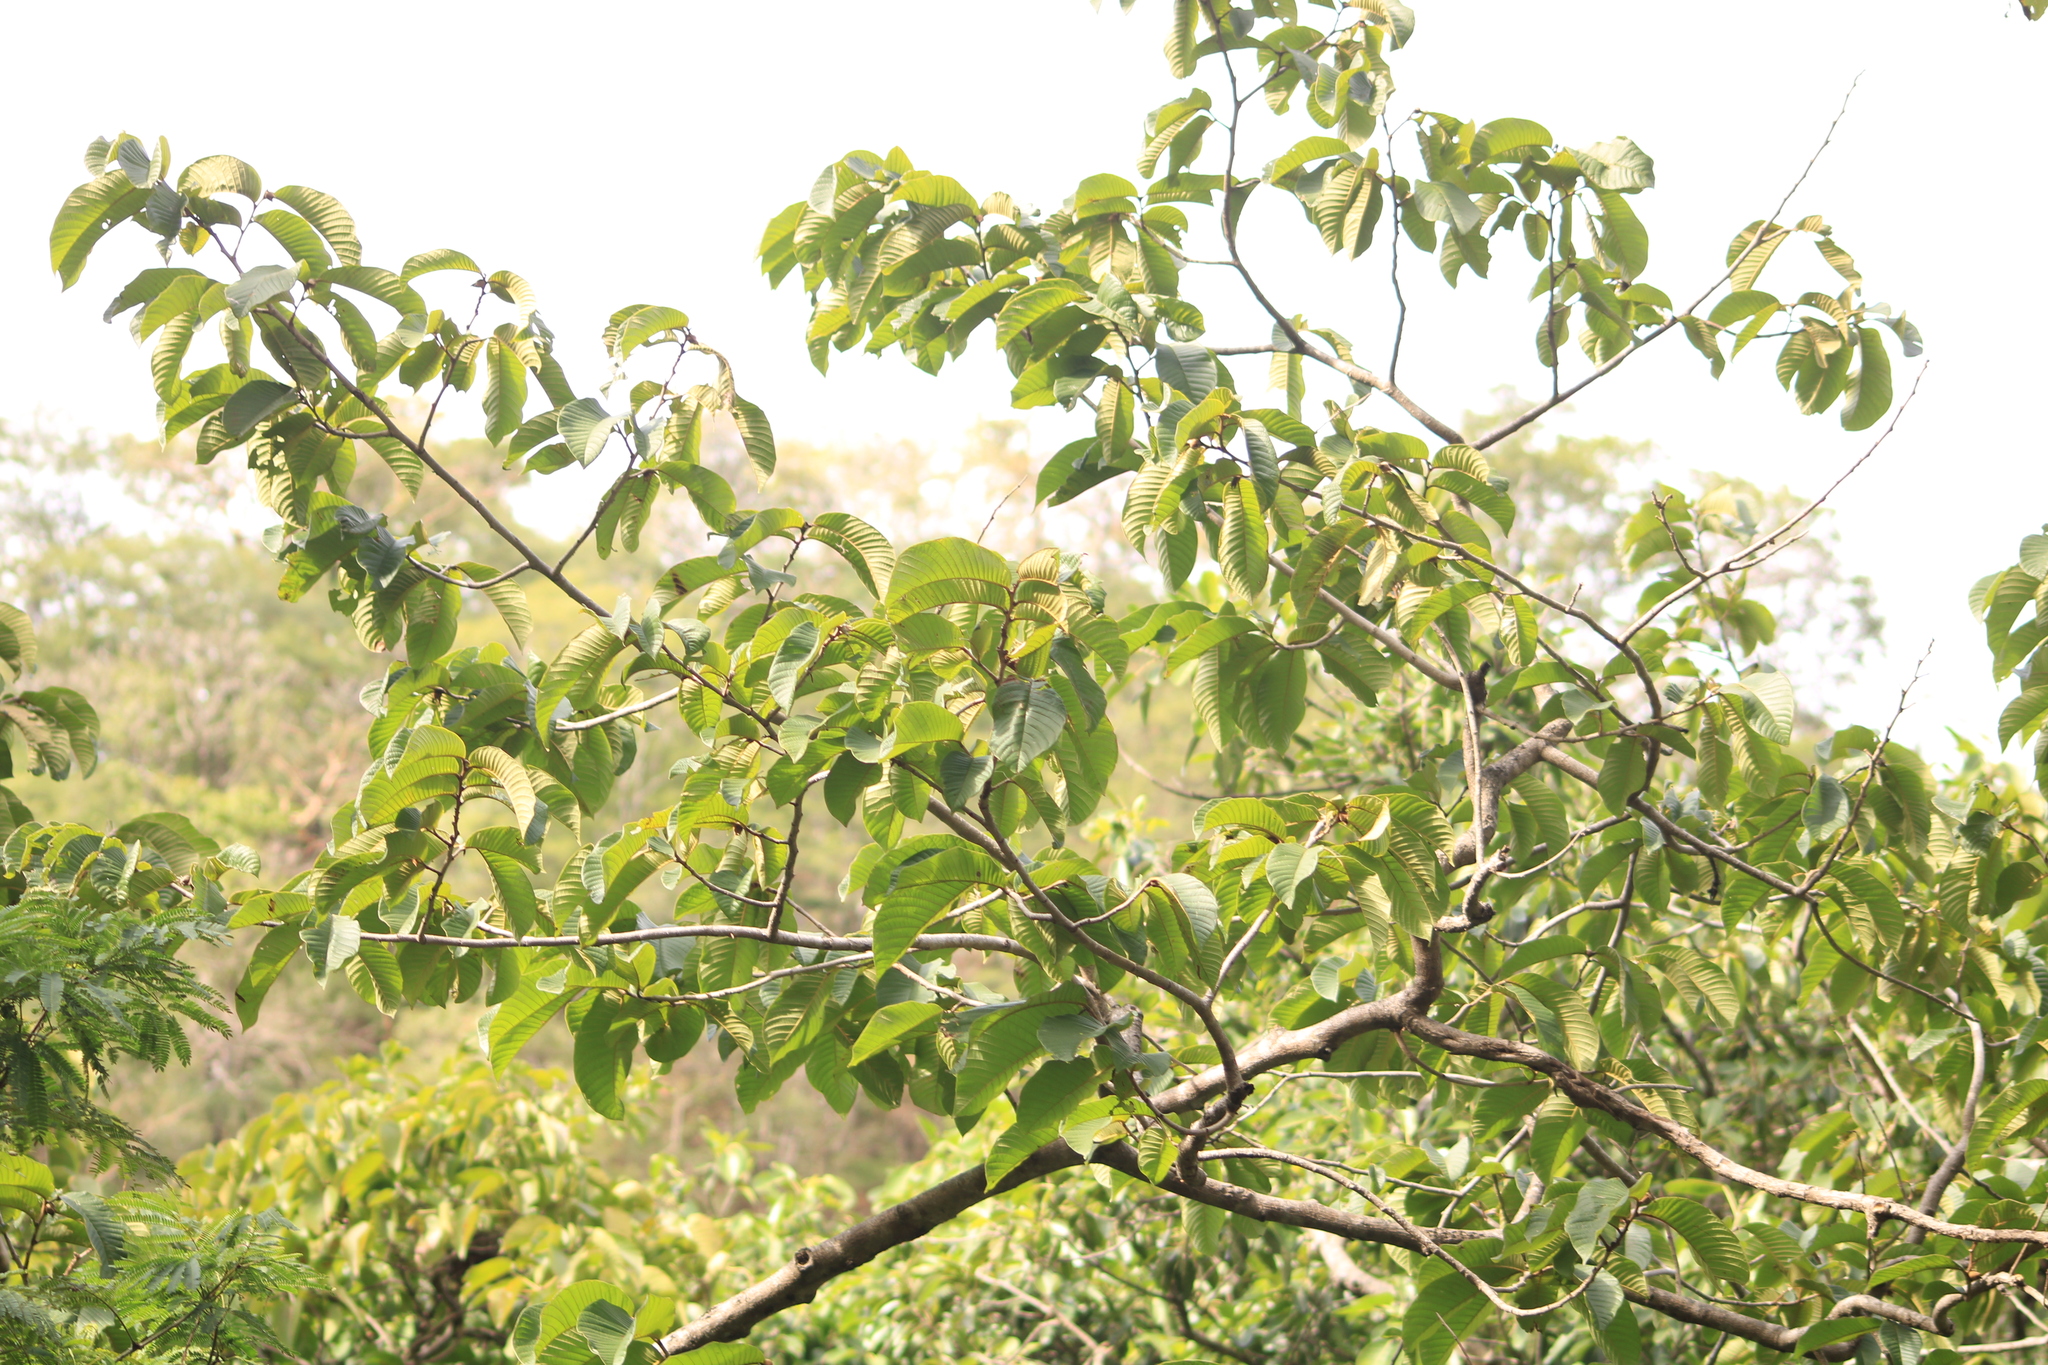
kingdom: Plantae
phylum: Tracheophyta
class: Magnoliopsida
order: Magnoliales
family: Annonaceae
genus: Annona
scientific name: Annona purpurea
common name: Negrohead
